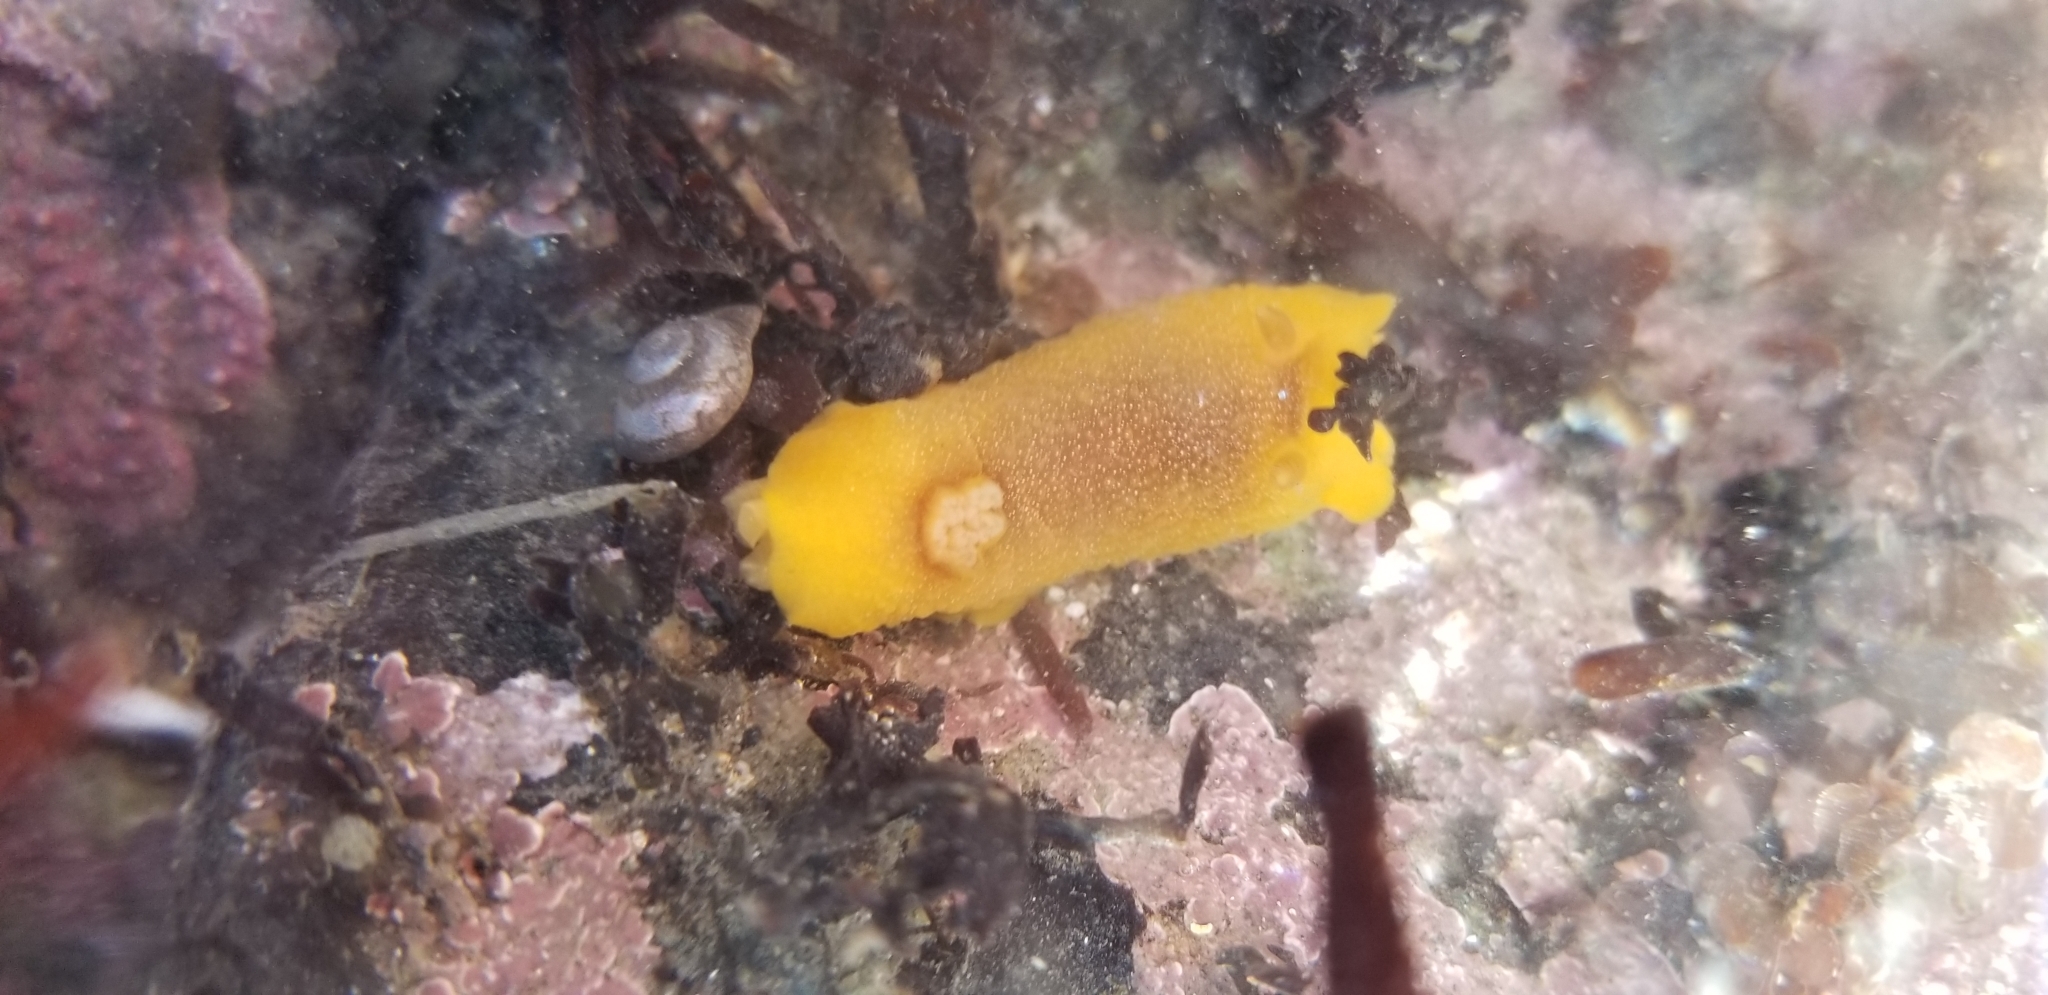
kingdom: Animalia
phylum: Mollusca
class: Gastropoda
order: Nudibranchia
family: Dendrodorididae
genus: Doriopsilla
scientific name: Doriopsilla albopunctata
